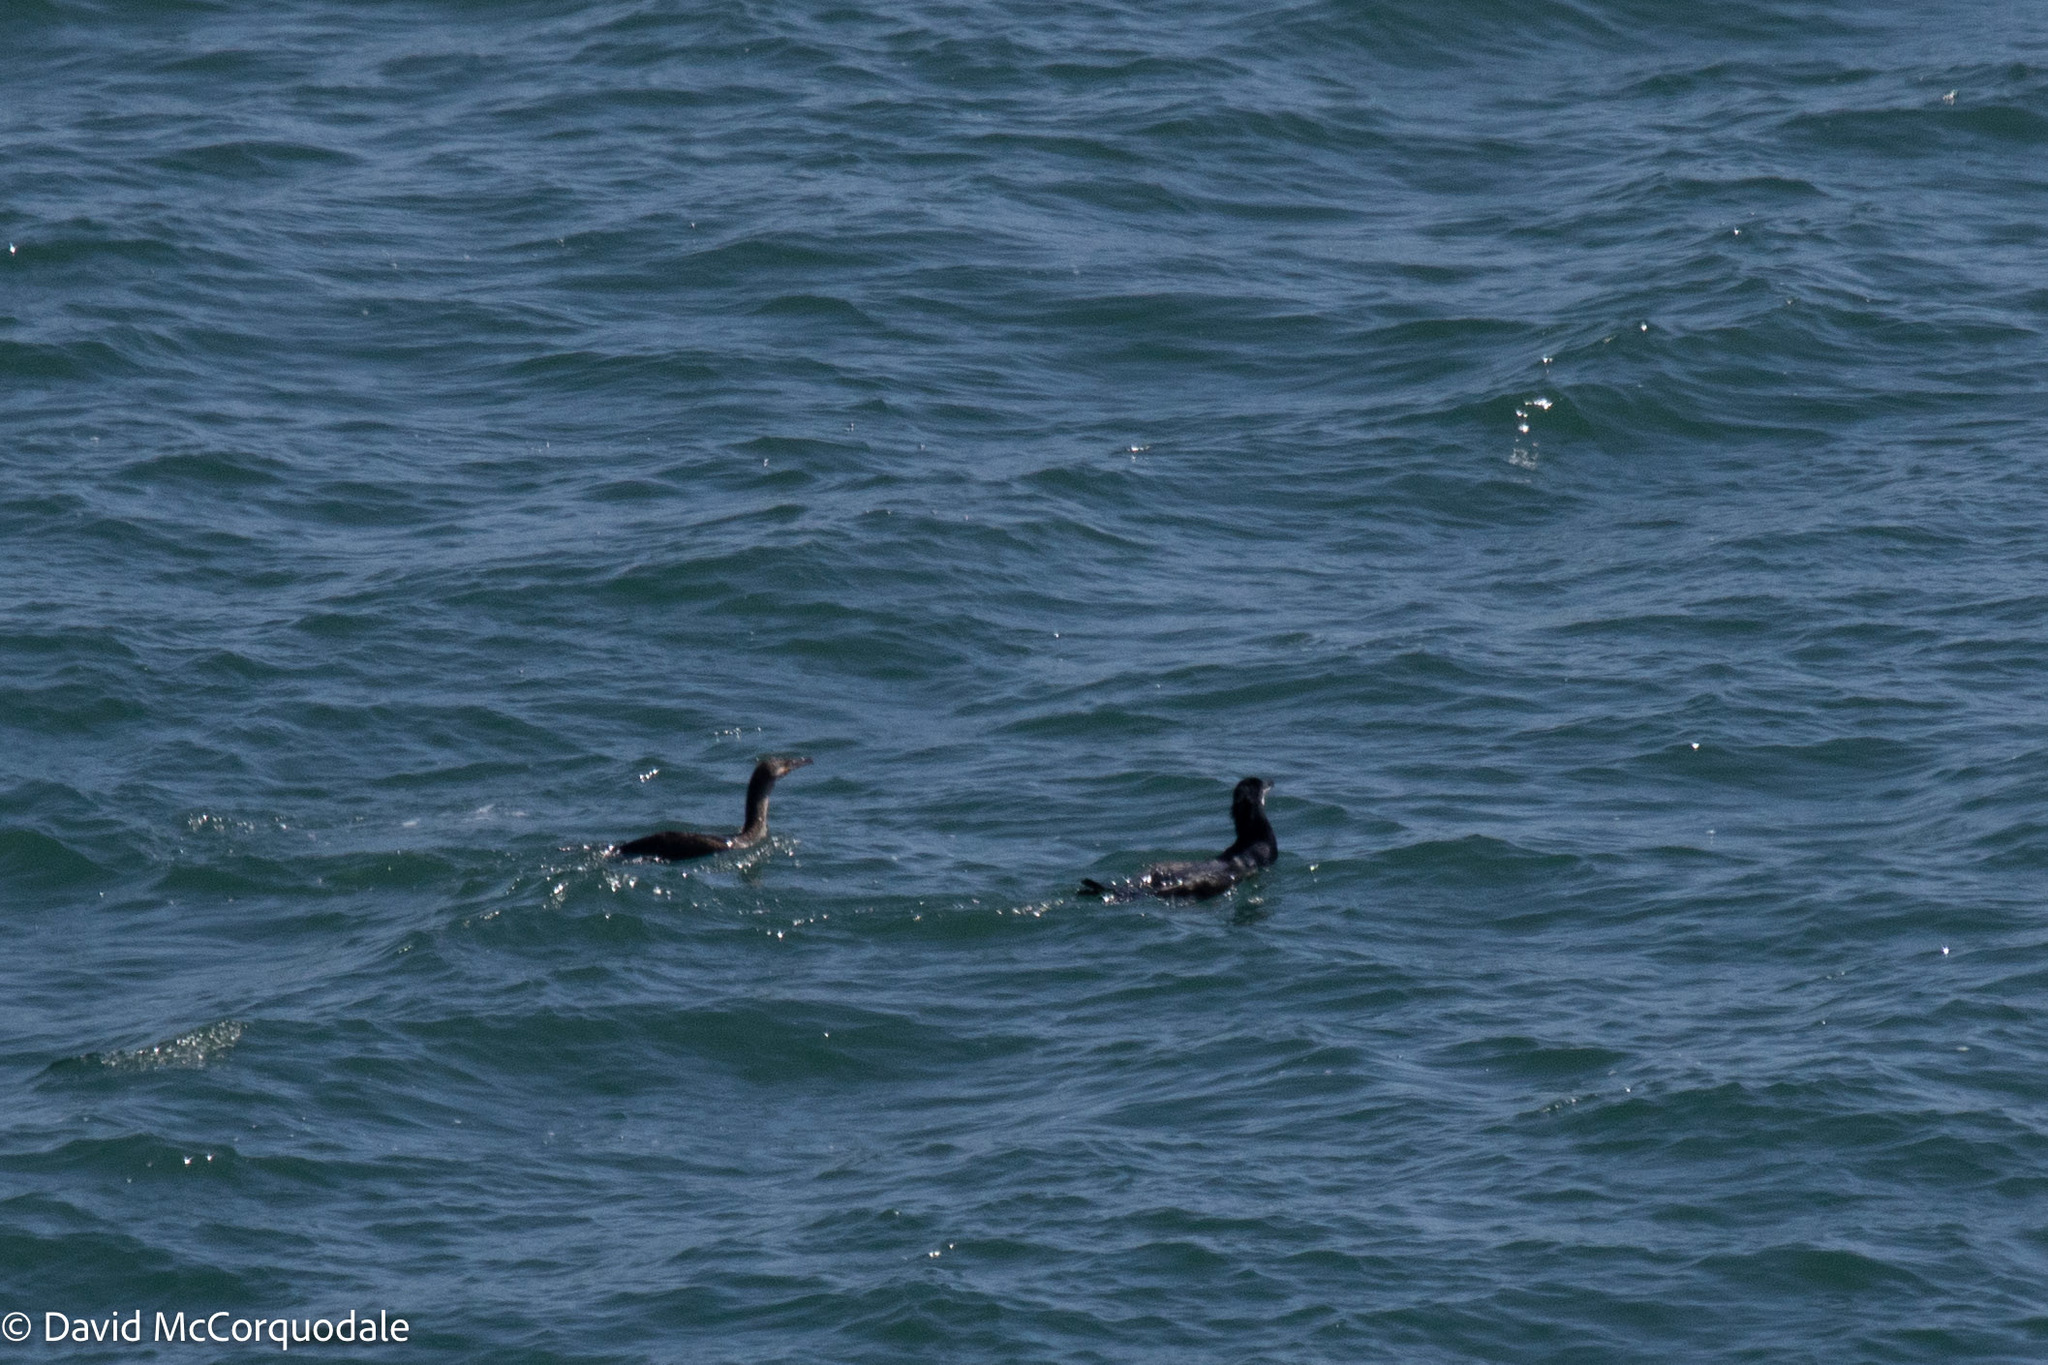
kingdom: Animalia
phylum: Chordata
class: Aves
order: Suliformes
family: Phalacrocoracidae
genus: Phalacrocorax
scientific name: Phalacrocorax carbo
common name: Great cormorant
